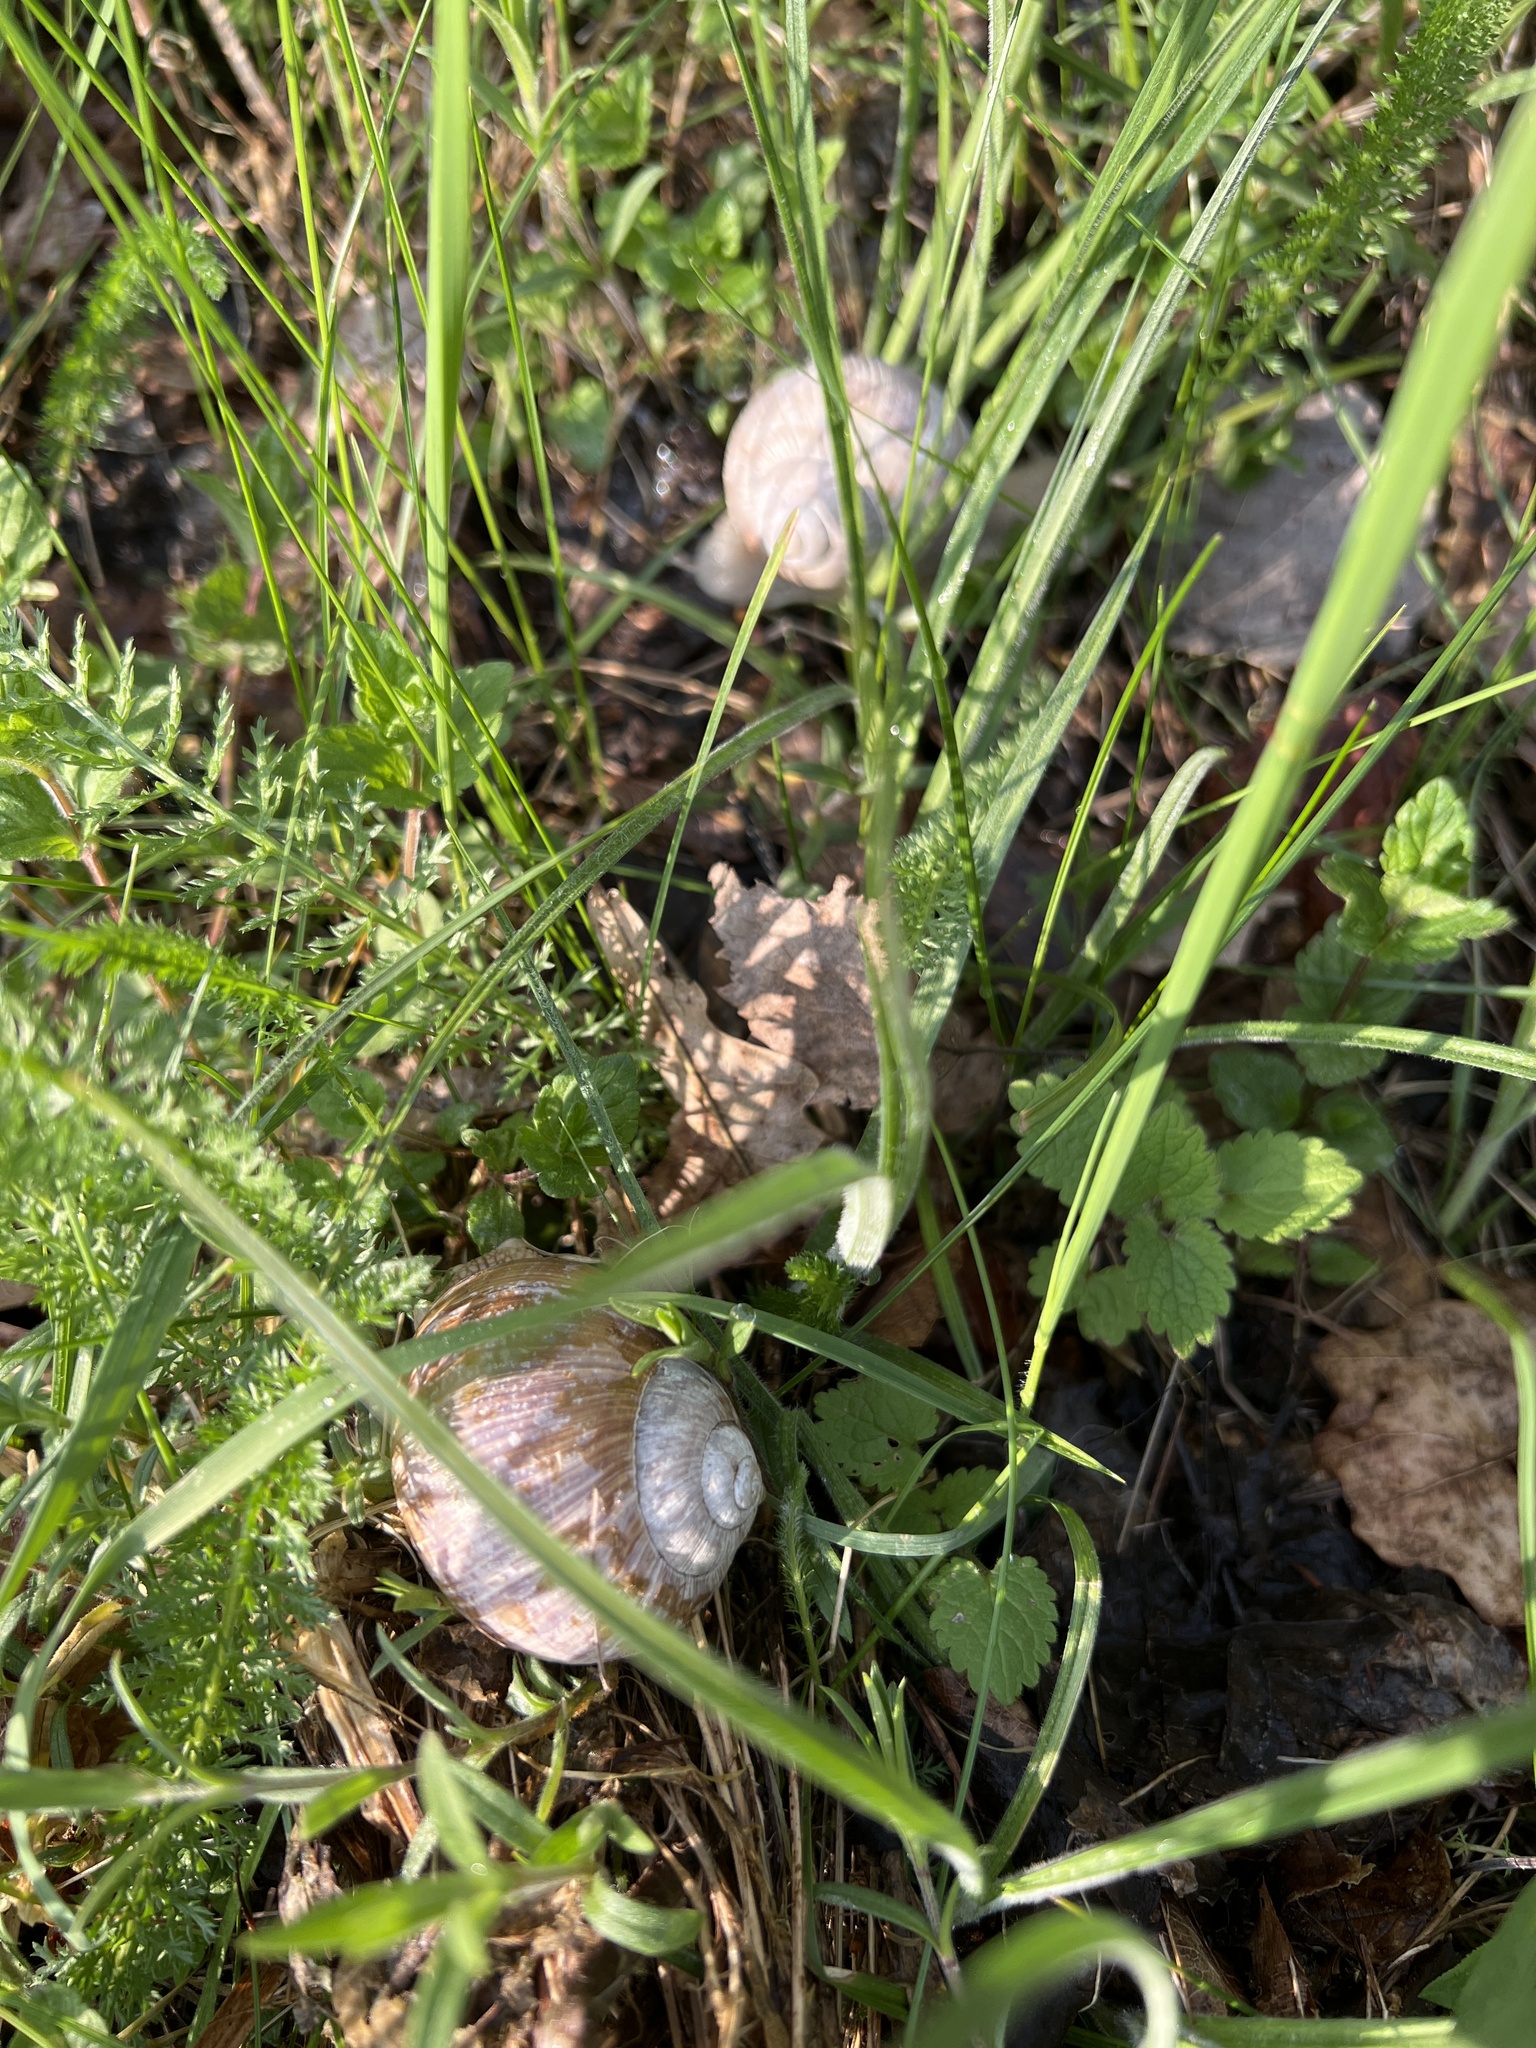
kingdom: Animalia
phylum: Mollusca
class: Gastropoda
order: Stylommatophora
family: Helicidae
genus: Helix
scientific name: Helix pomatia
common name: Roman snail
